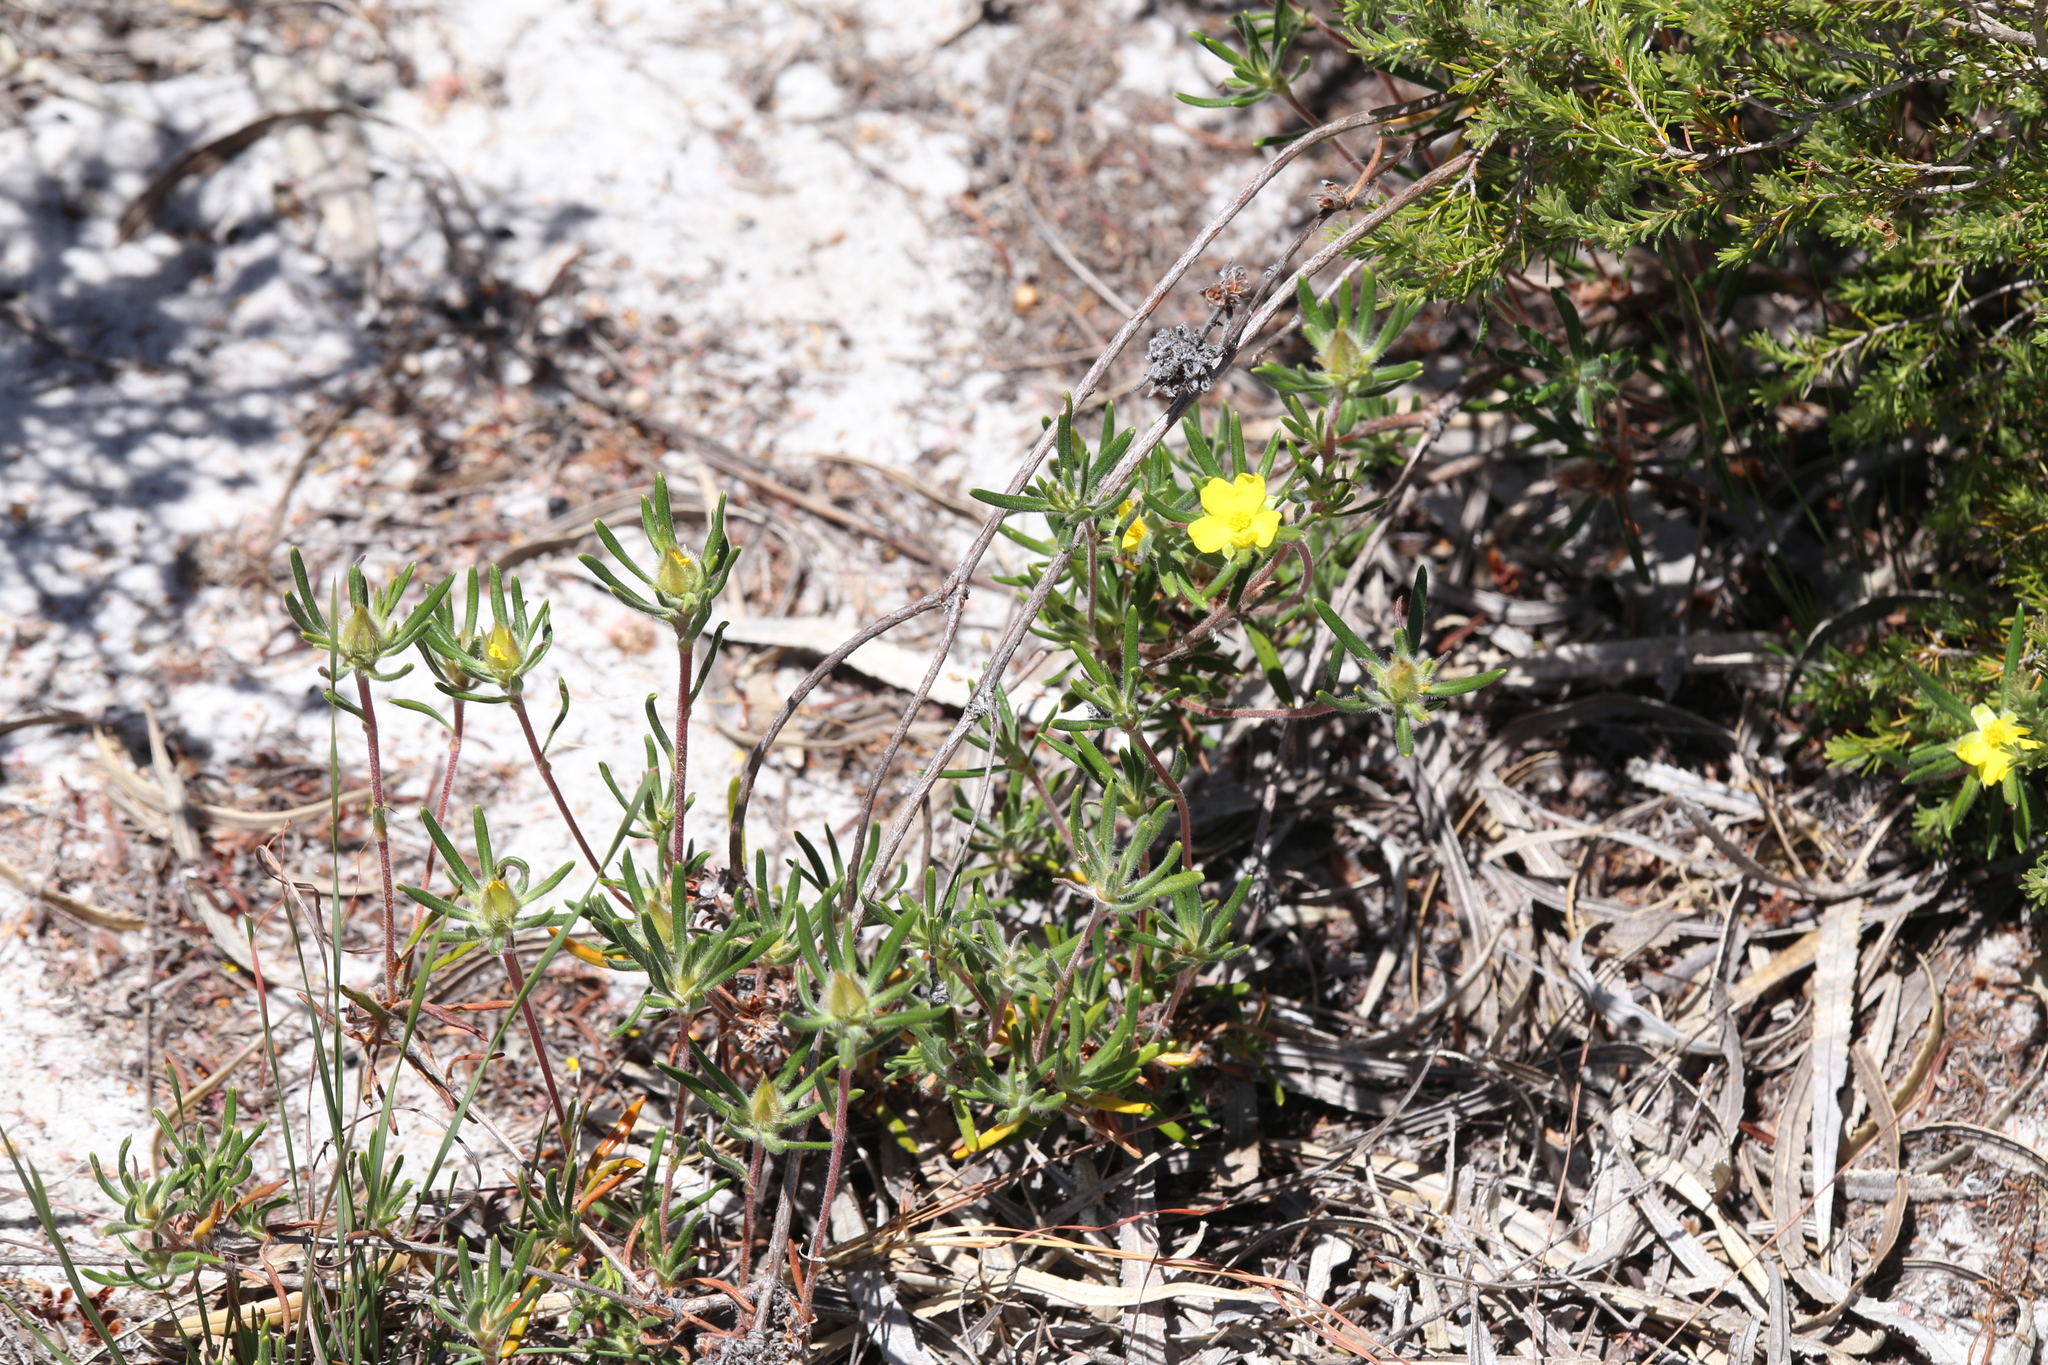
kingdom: Plantae
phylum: Tracheophyta
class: Magnoliopsida
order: Dilleniales
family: Dilleniaceae
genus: Hibbertia
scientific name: Hibbertia sericosepala
